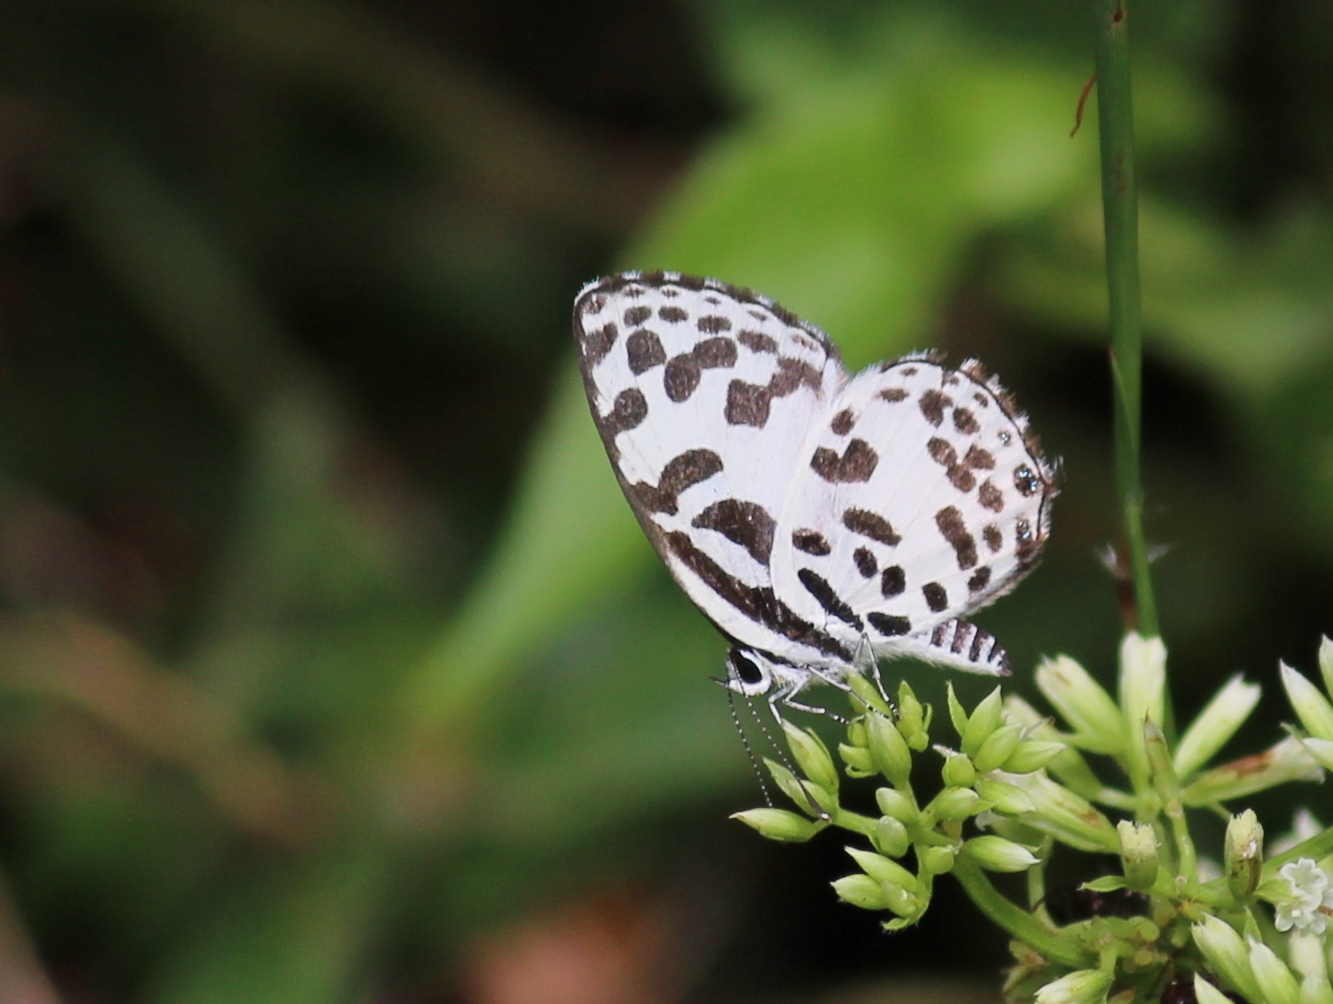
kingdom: Animalia
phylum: Arthropoda
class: Insecta
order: Lepidoptera
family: Lycaenidae
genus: Castalius
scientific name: Castalius rosimon
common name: Common pierrot
